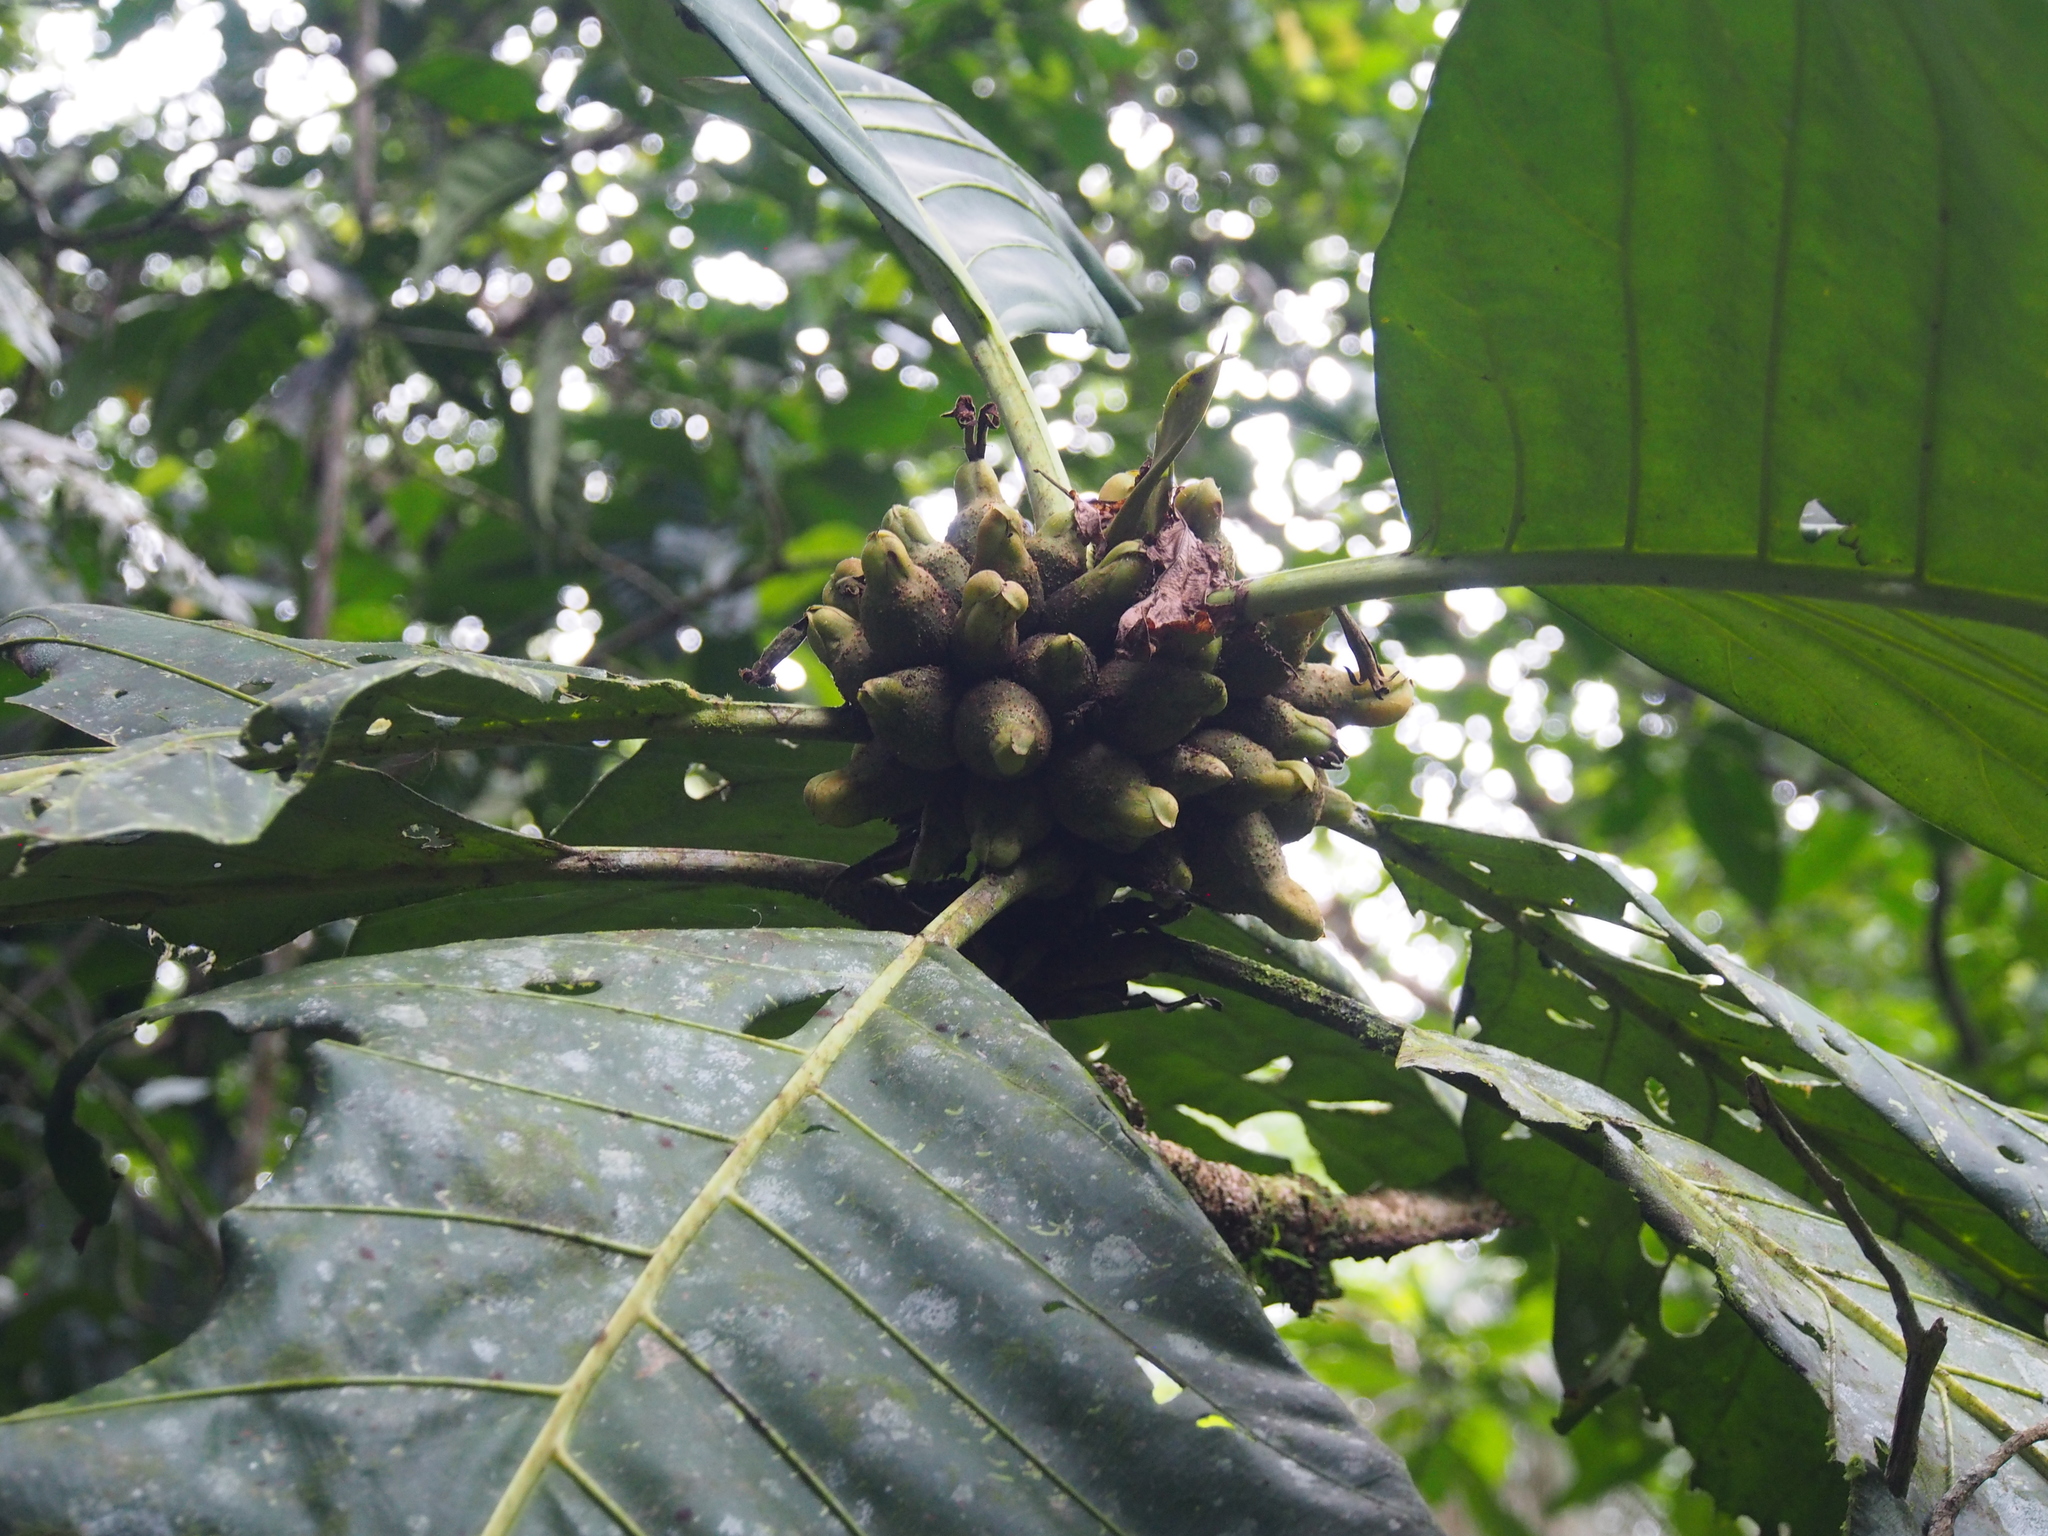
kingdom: Plantae
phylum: Tracheophyta
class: Magnoliopsida
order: Gentianales
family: Rubiaceae
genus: Pentagonia
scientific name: Pentagonia donnell-smithii
